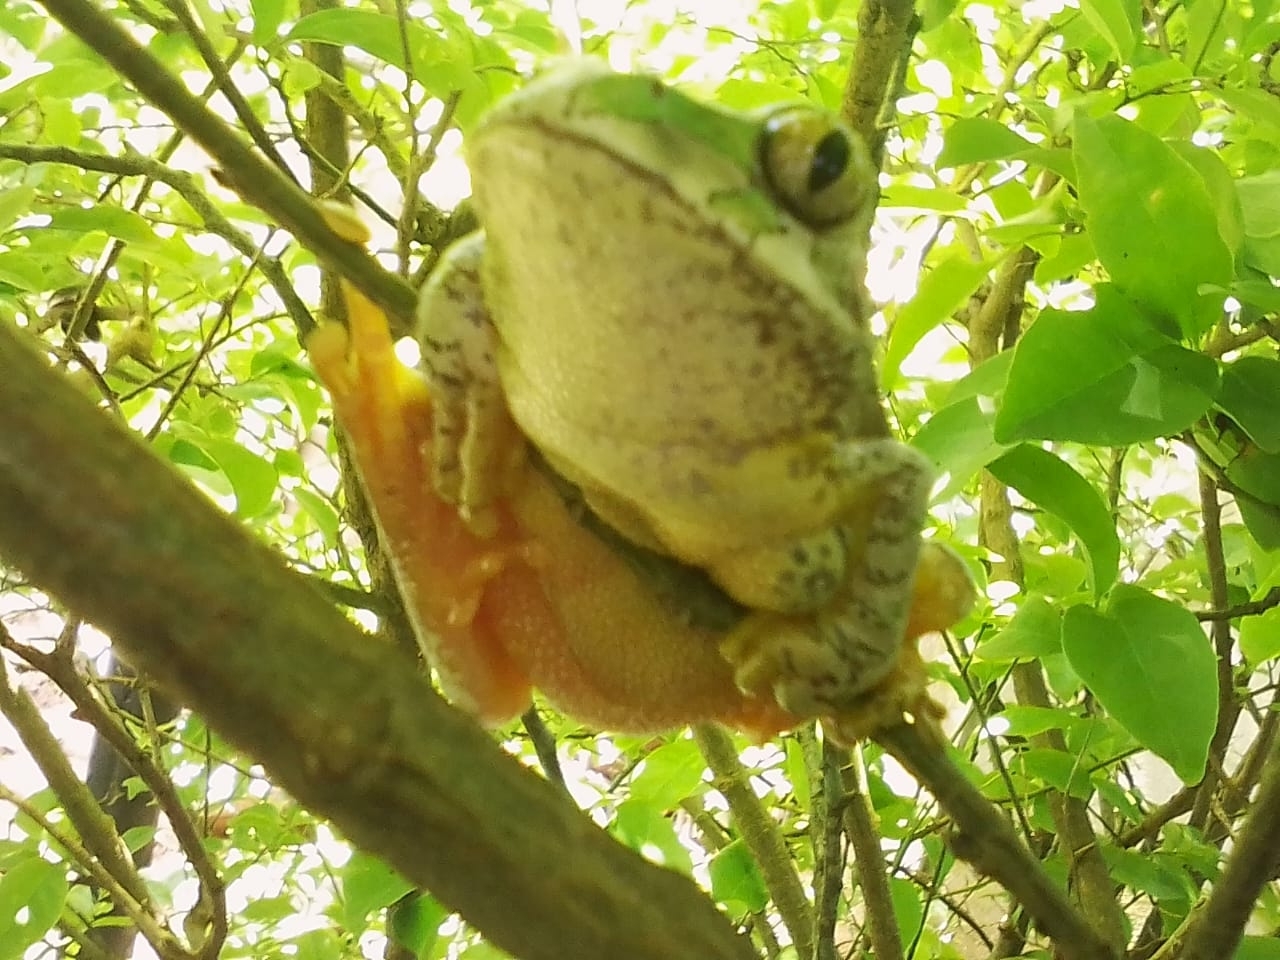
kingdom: Animalia
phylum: Chordata
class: Amphibia
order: Anura
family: Arthroleptidae
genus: Leptopelis
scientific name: Leptopelis natalensis
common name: Natal tree frog
